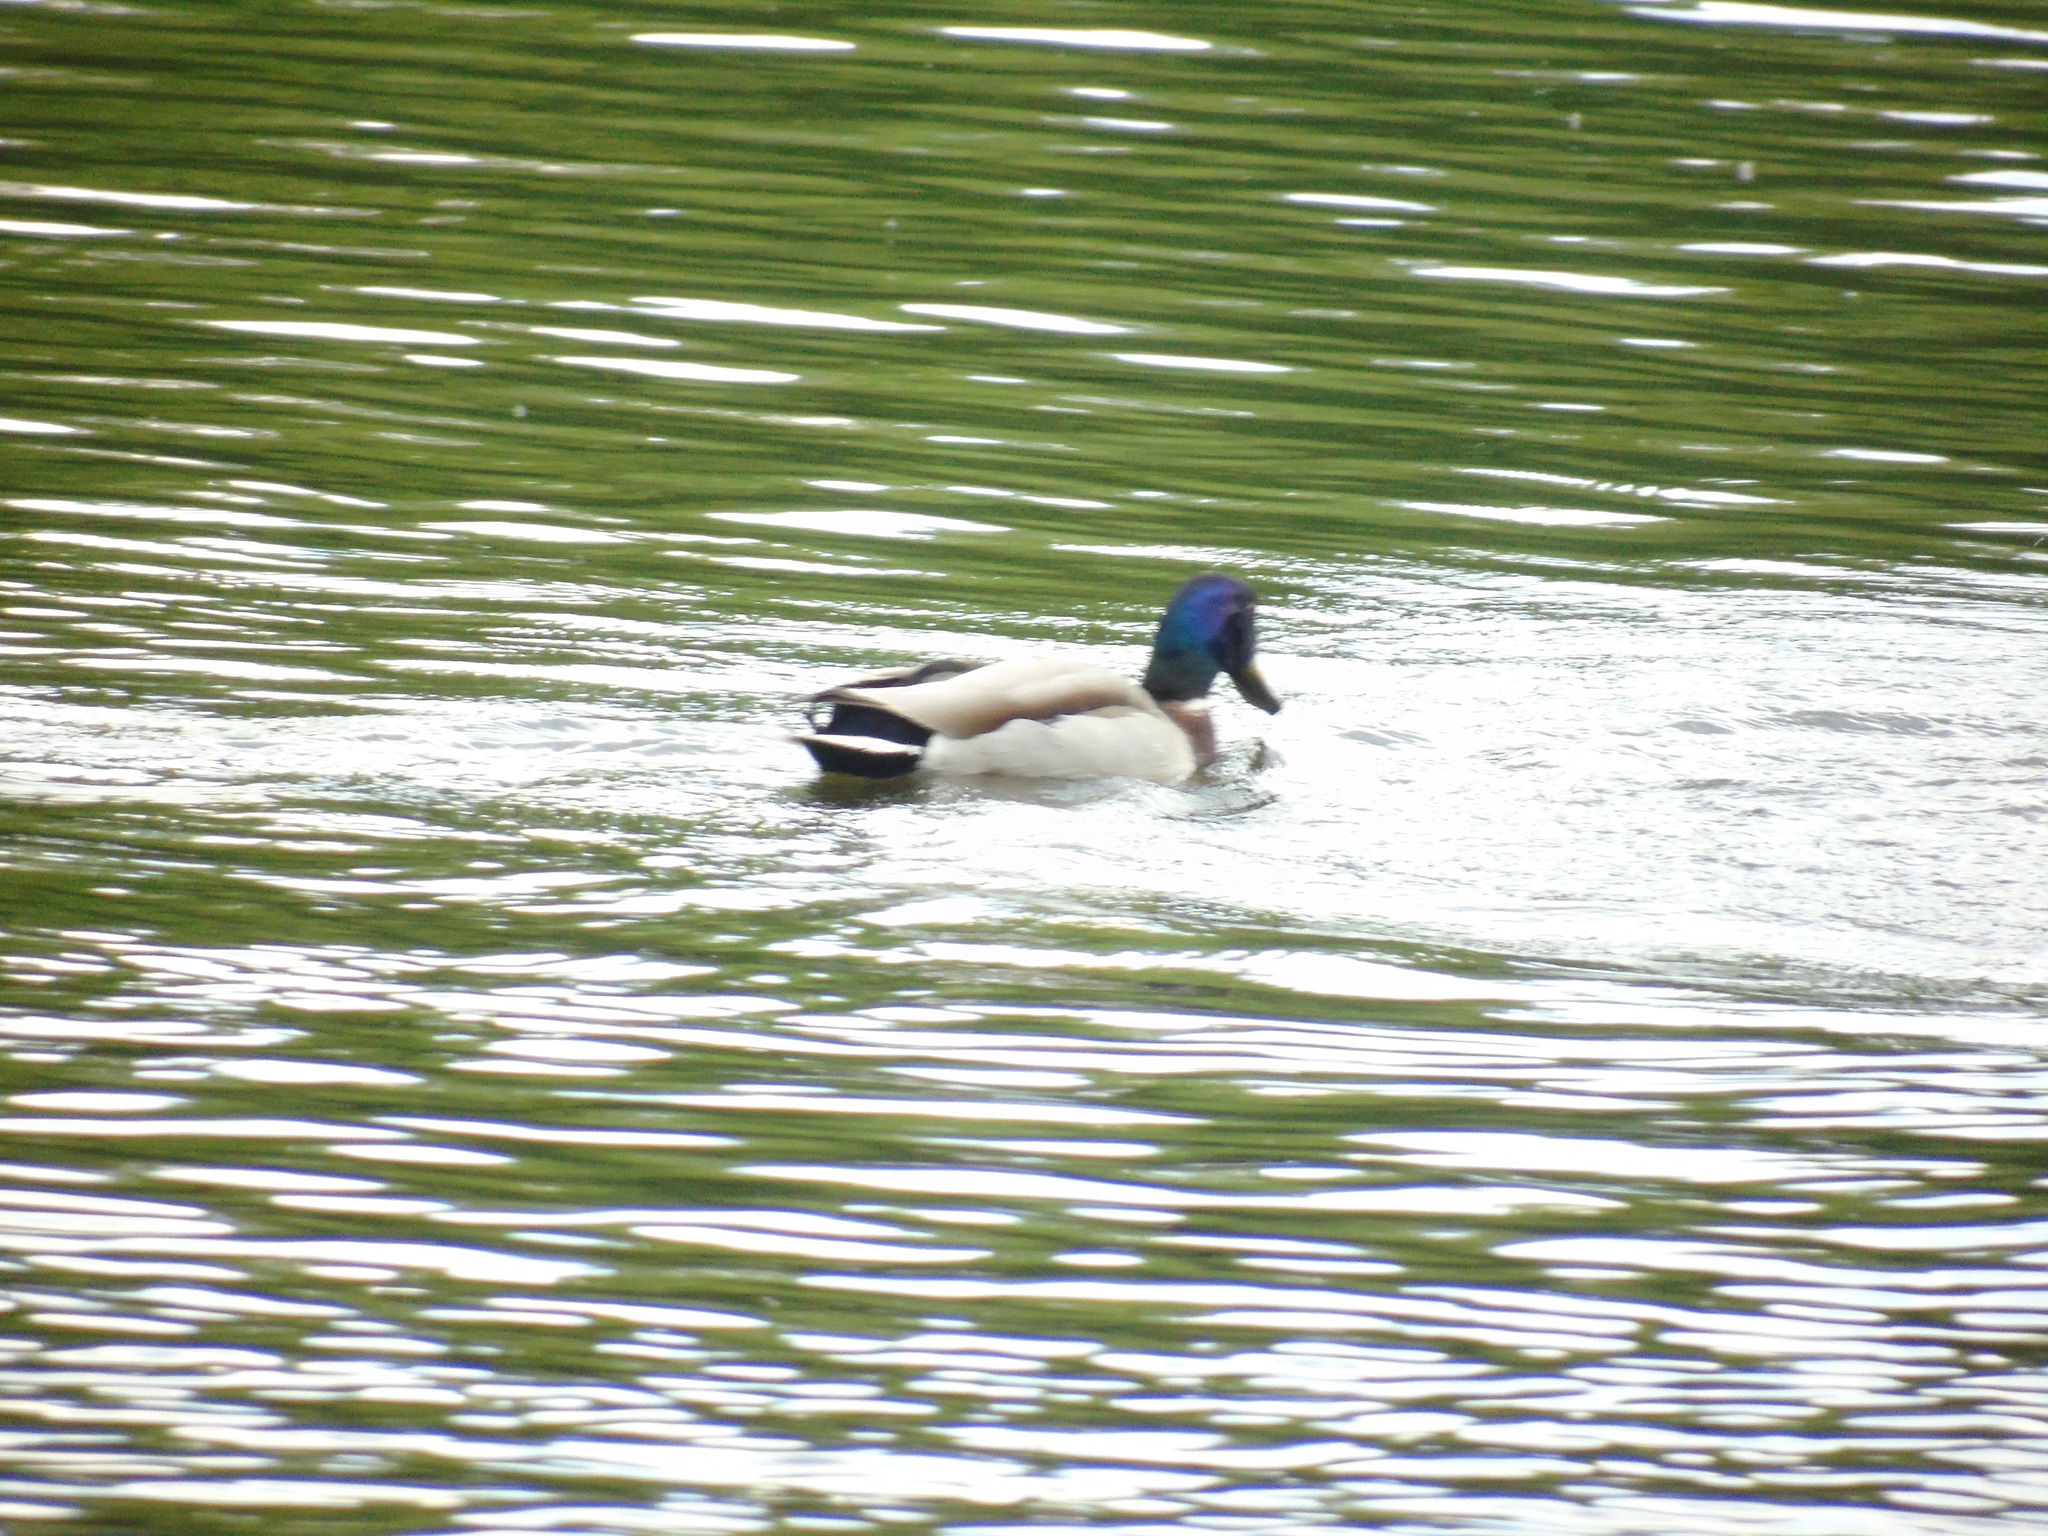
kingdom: Animalia
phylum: Chordata
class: Aves
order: Anseriformes
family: Anatidae
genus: Anas
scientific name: Anas platyrhynchos
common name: Mallard
